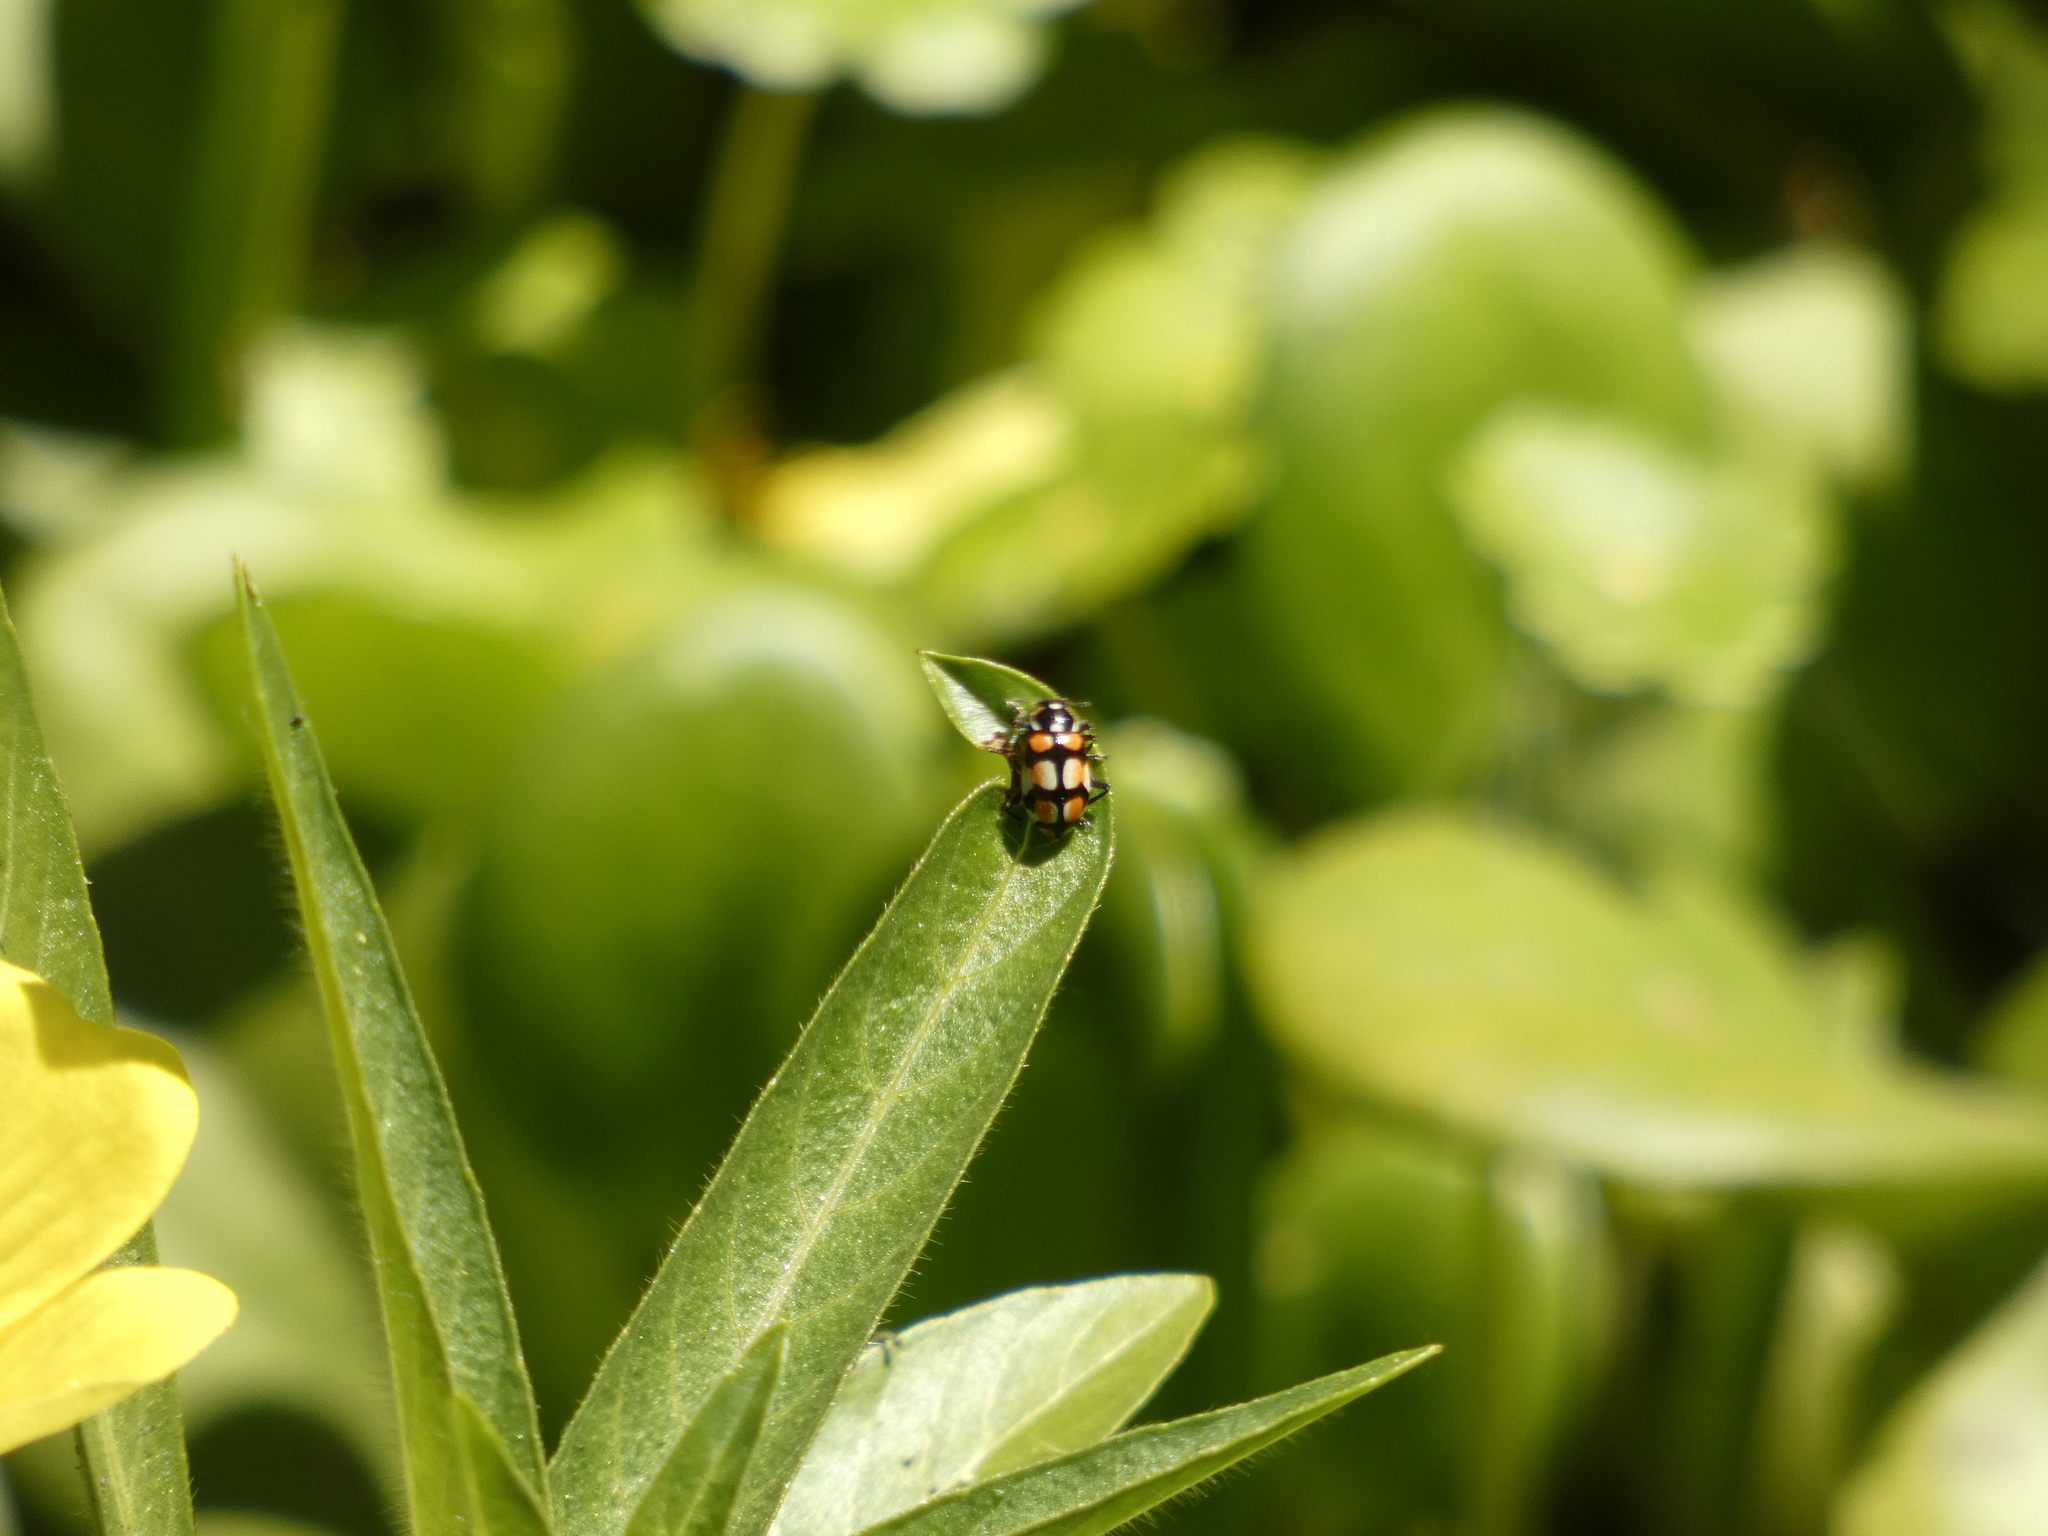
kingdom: Animalia
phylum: Arthropoda
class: Insecta
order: Coleoptera
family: Coccinellidae
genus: Eriopis
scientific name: Eriopis chilensis
